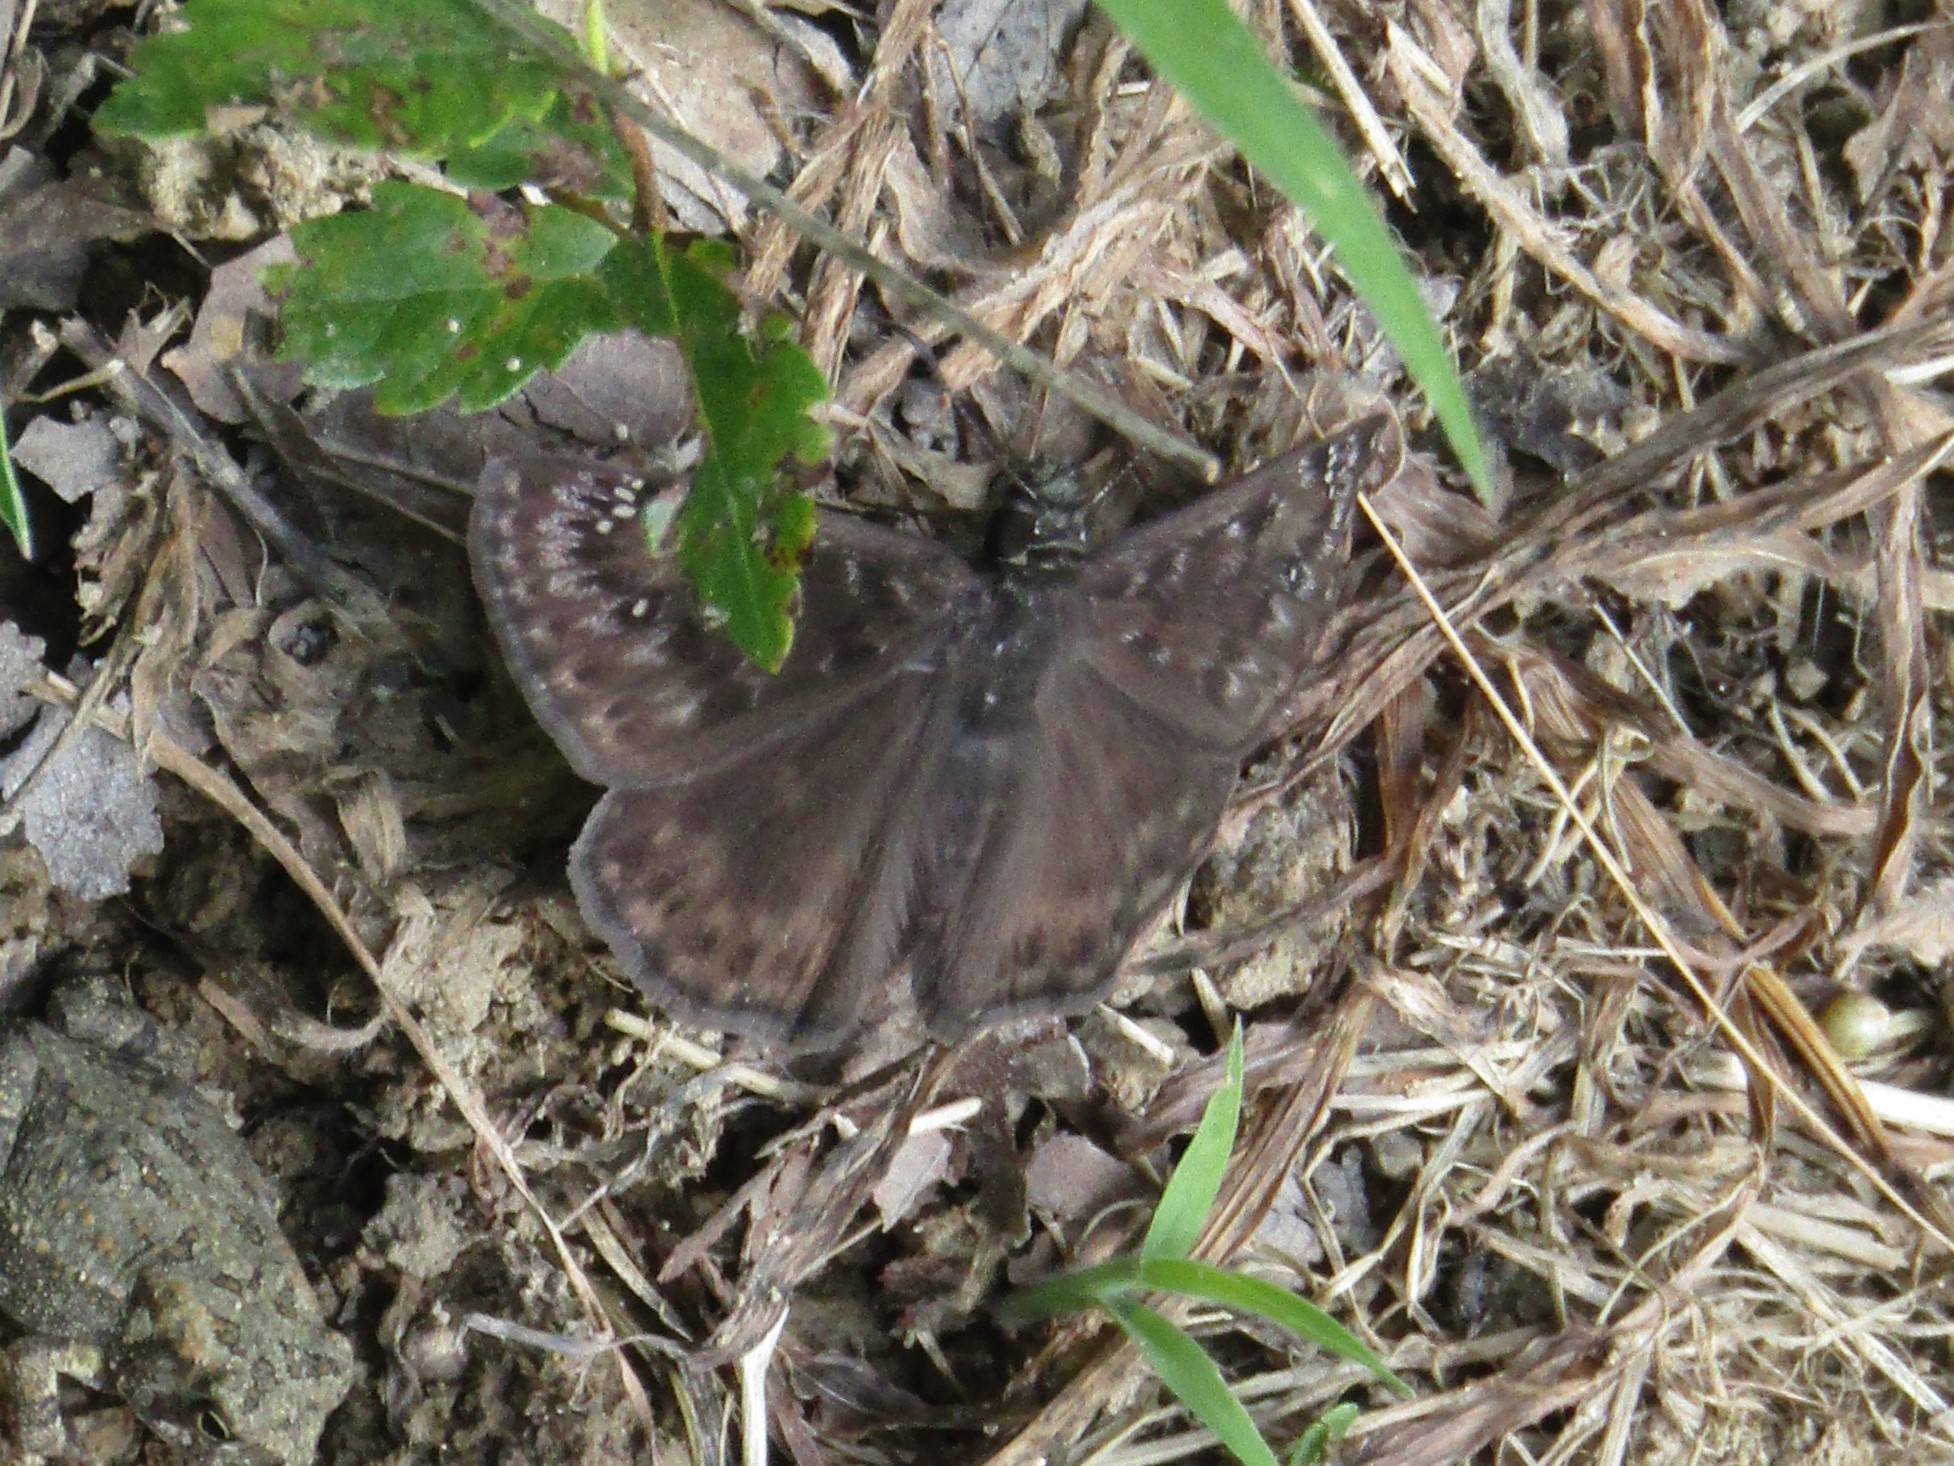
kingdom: Animalia
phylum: Arthropoda
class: Insecta
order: Lepidoptera
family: Hesperiidae
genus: Erynnis
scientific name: Erynnis horatius
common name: Horace's duskywing
